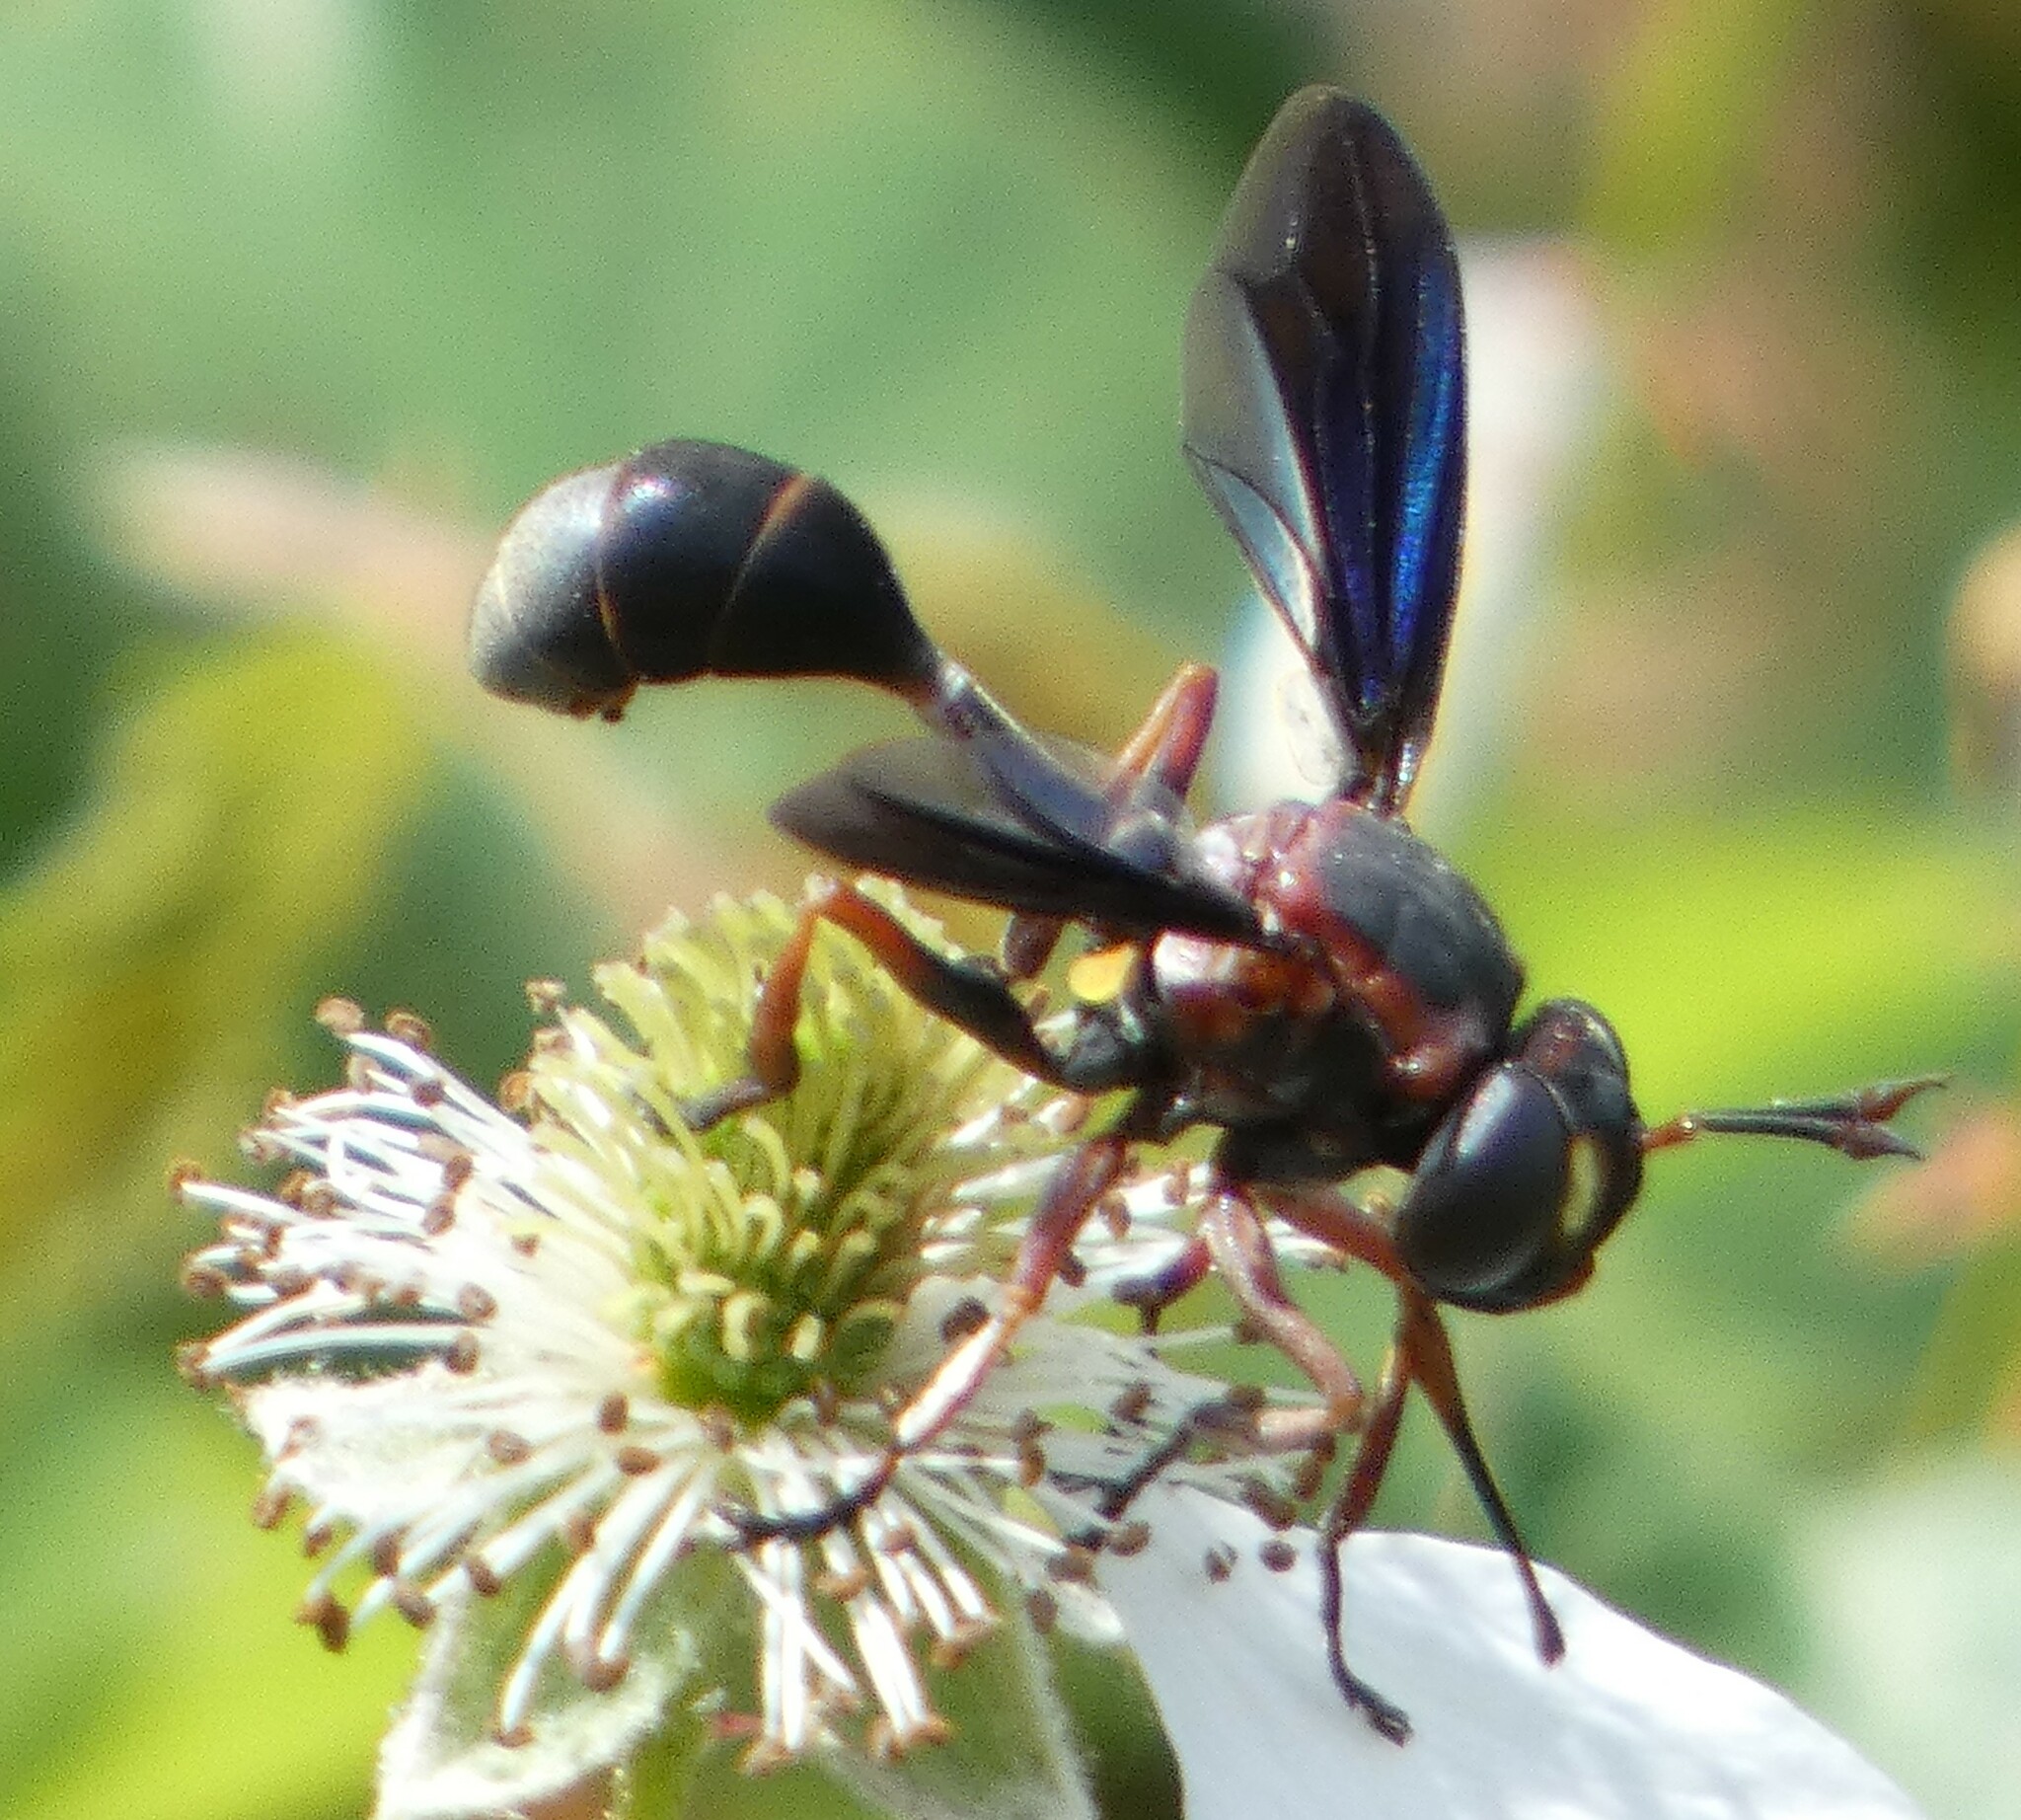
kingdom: Animalia
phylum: Arthropoda
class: Insecta
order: Diptera
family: Conopidae
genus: Physocephala
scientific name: Physocephala floridana
